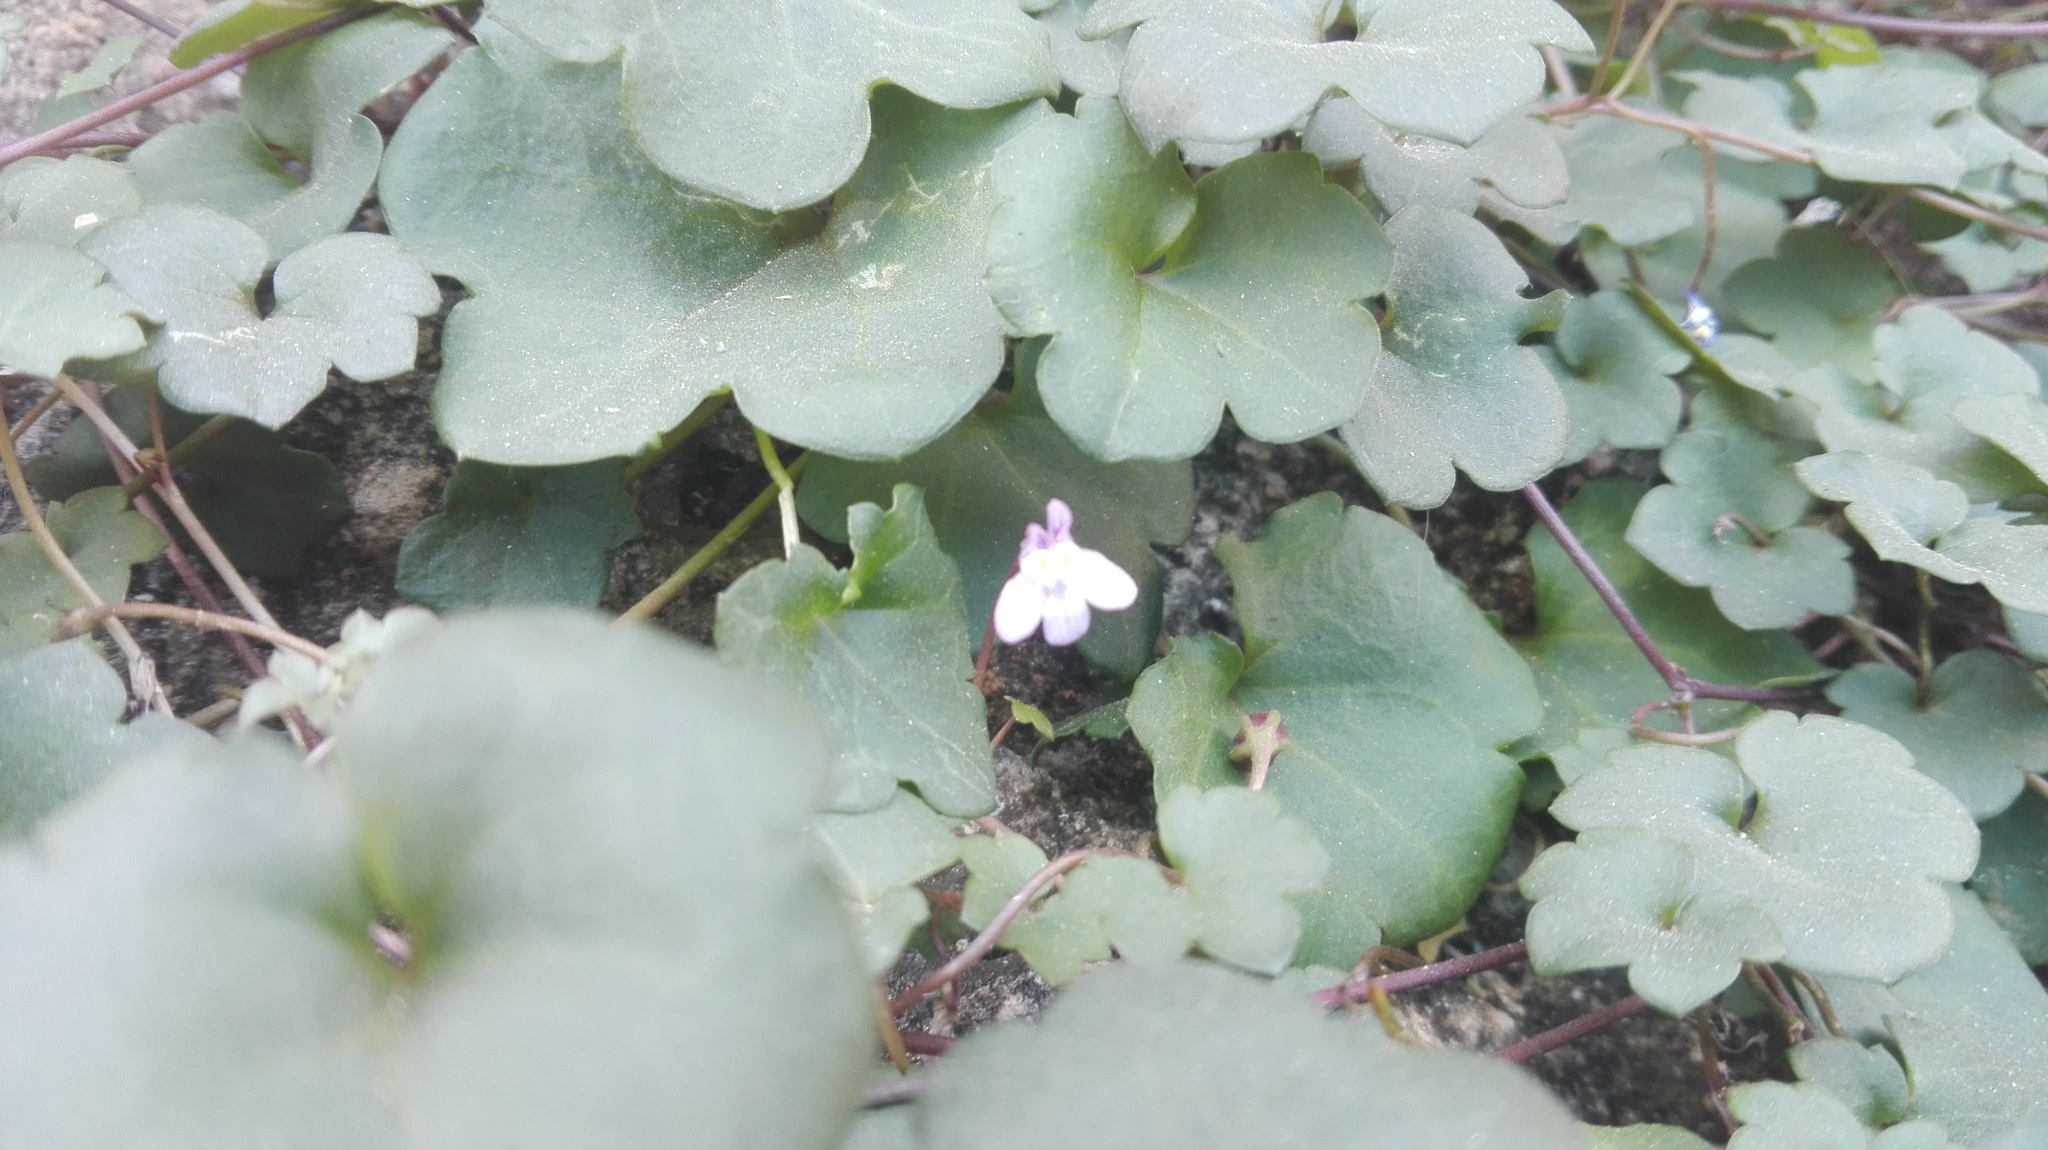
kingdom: Plantae
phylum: Tracheophyta
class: Magnoliopsida
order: Lamiales
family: Plantaginaceae
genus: Cymbalaria
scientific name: Cymbalaria muralis
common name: Ivy-leaved toadflax
